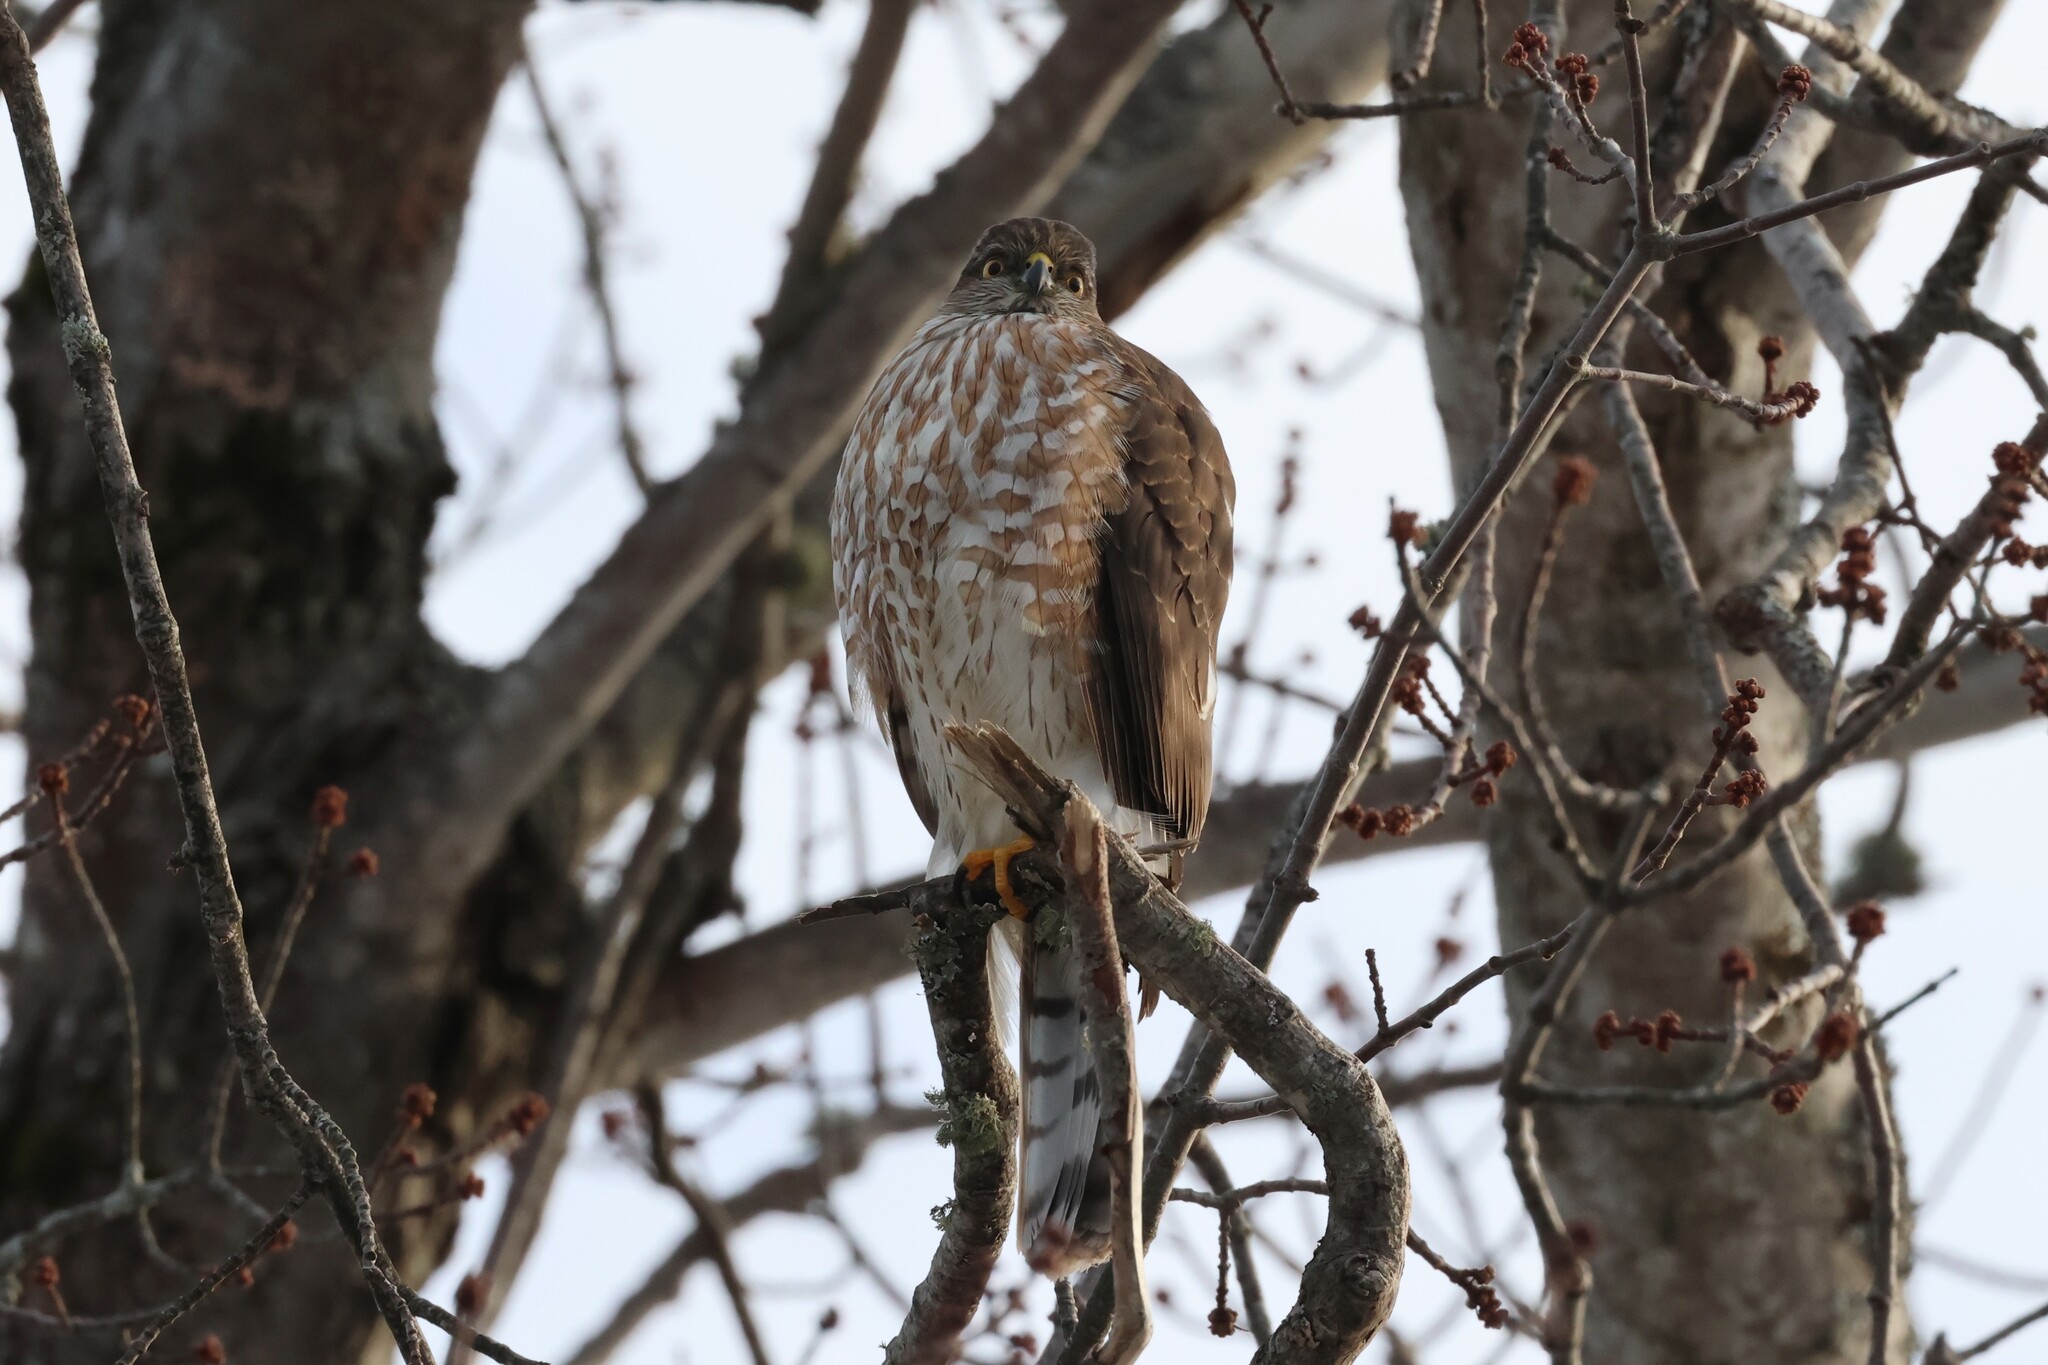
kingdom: Animalia
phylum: Chordata
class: Aves
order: Accipitriformes
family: Accipitridae
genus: Accipiter
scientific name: Accipiter striatus
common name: Sharp-shinned hawk
